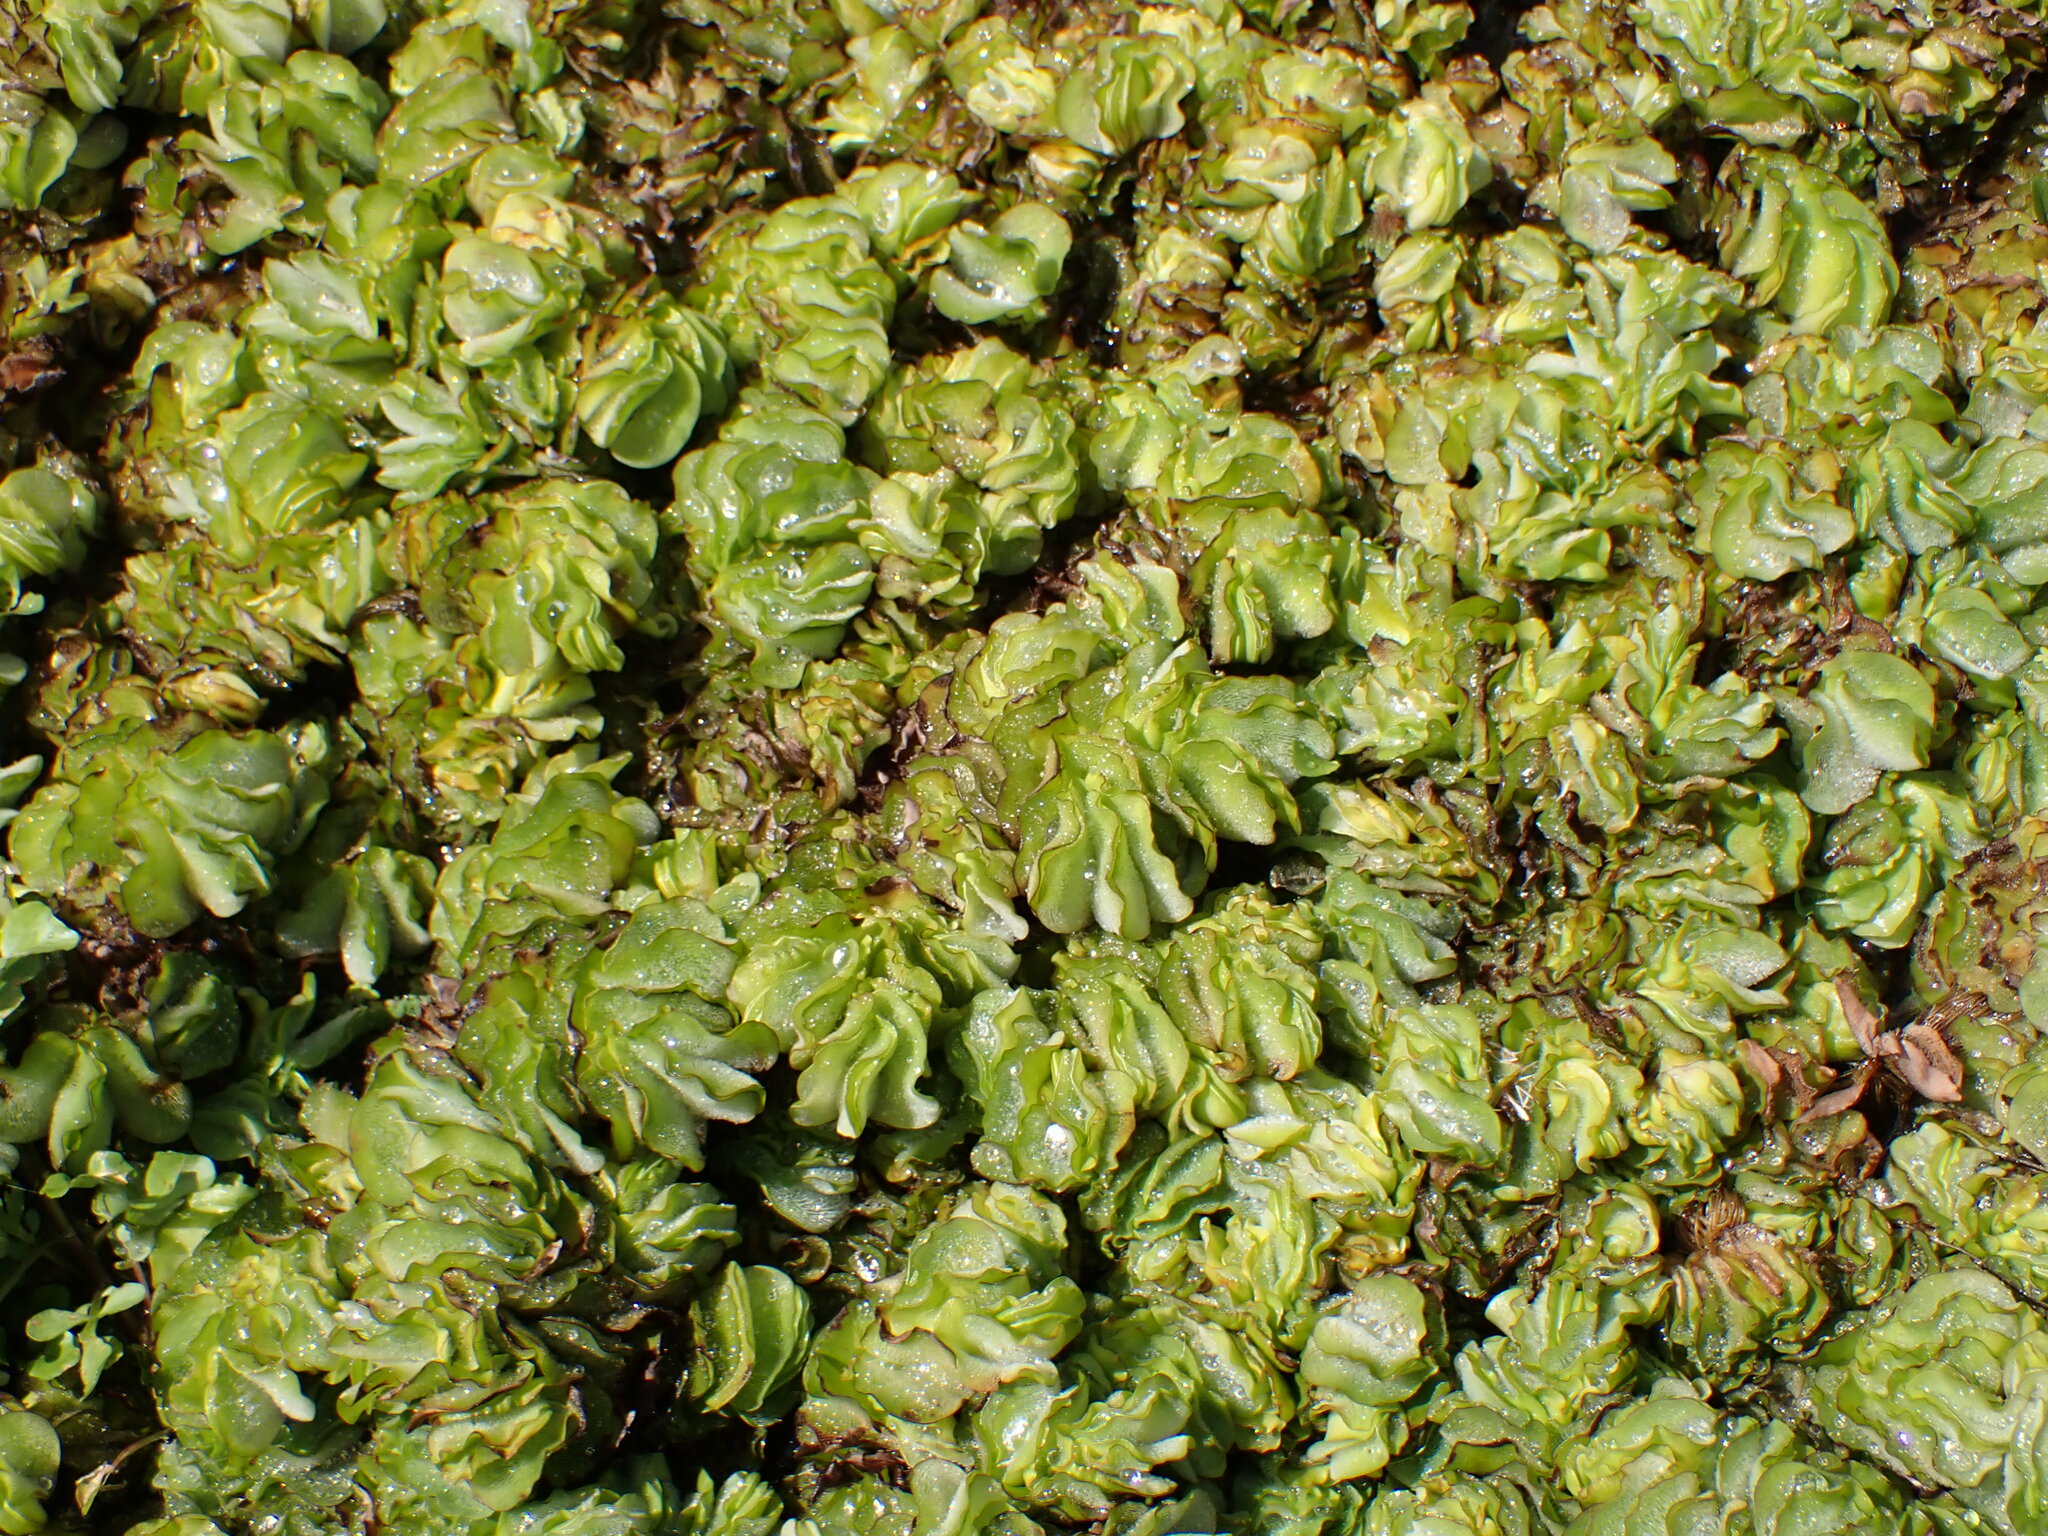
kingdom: Plantae
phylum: Tracheophyta
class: Polypodiopsida
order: Salviniales
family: Salviniaceae
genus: Salvinia
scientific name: Salvinia molesta
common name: Kariba weed
